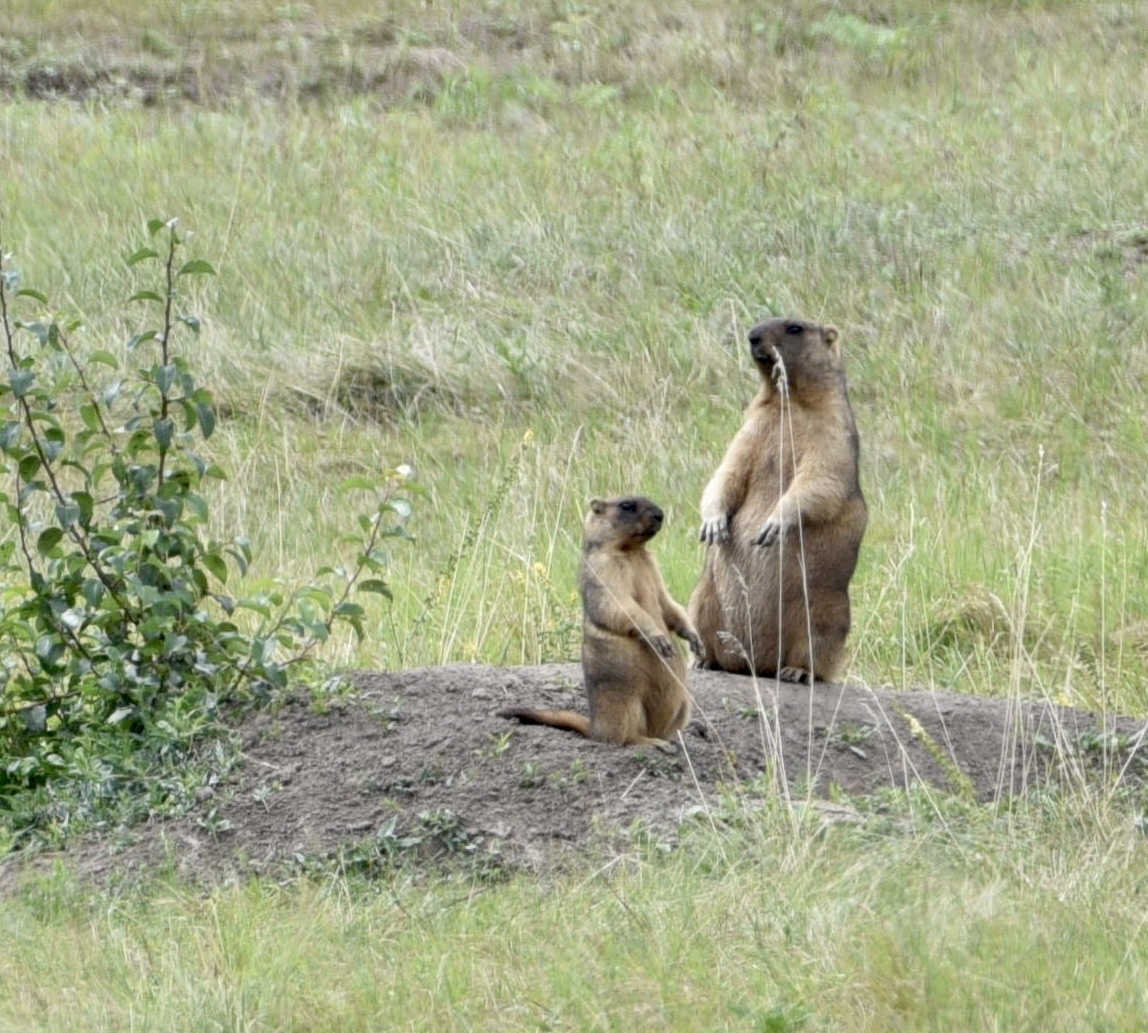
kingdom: Animalia
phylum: Chordata
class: Mammalia
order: Rodentia
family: Sciuridae
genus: Marmota
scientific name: Marmota bobak
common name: Bobak marmot
